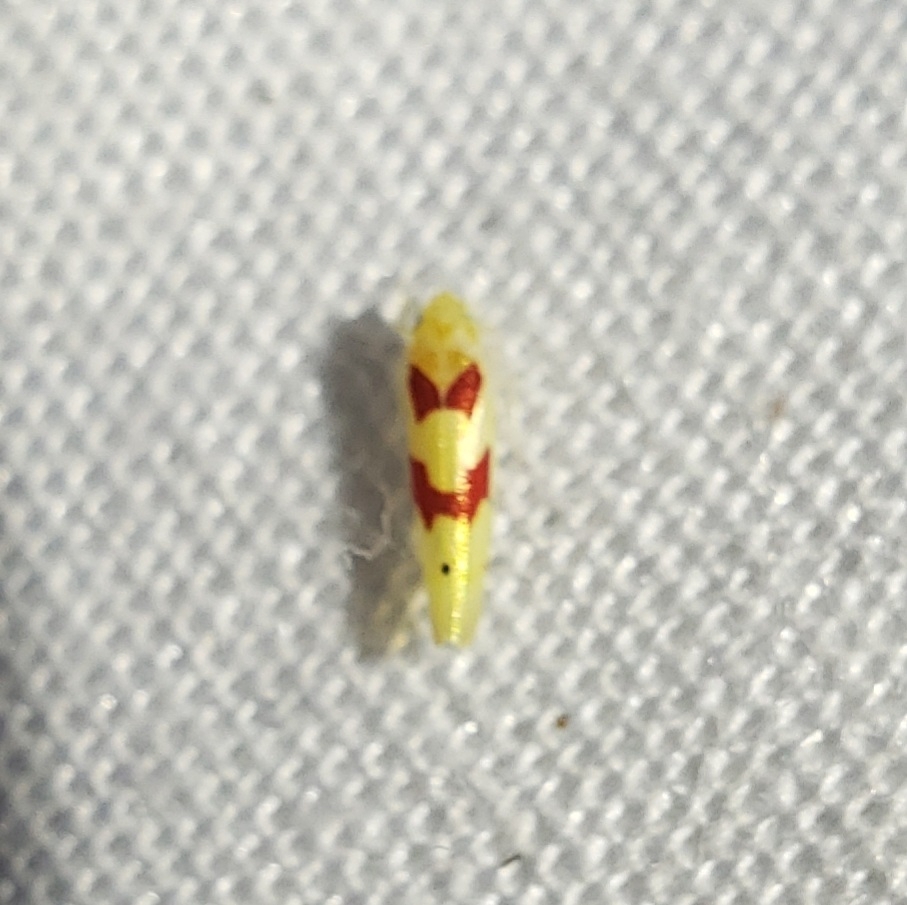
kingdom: Animalia
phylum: Arthropoda
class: Insecta
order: Hemiptera
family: Cicadellidae
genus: Eratoneura
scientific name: Eratoneura paraesculi
